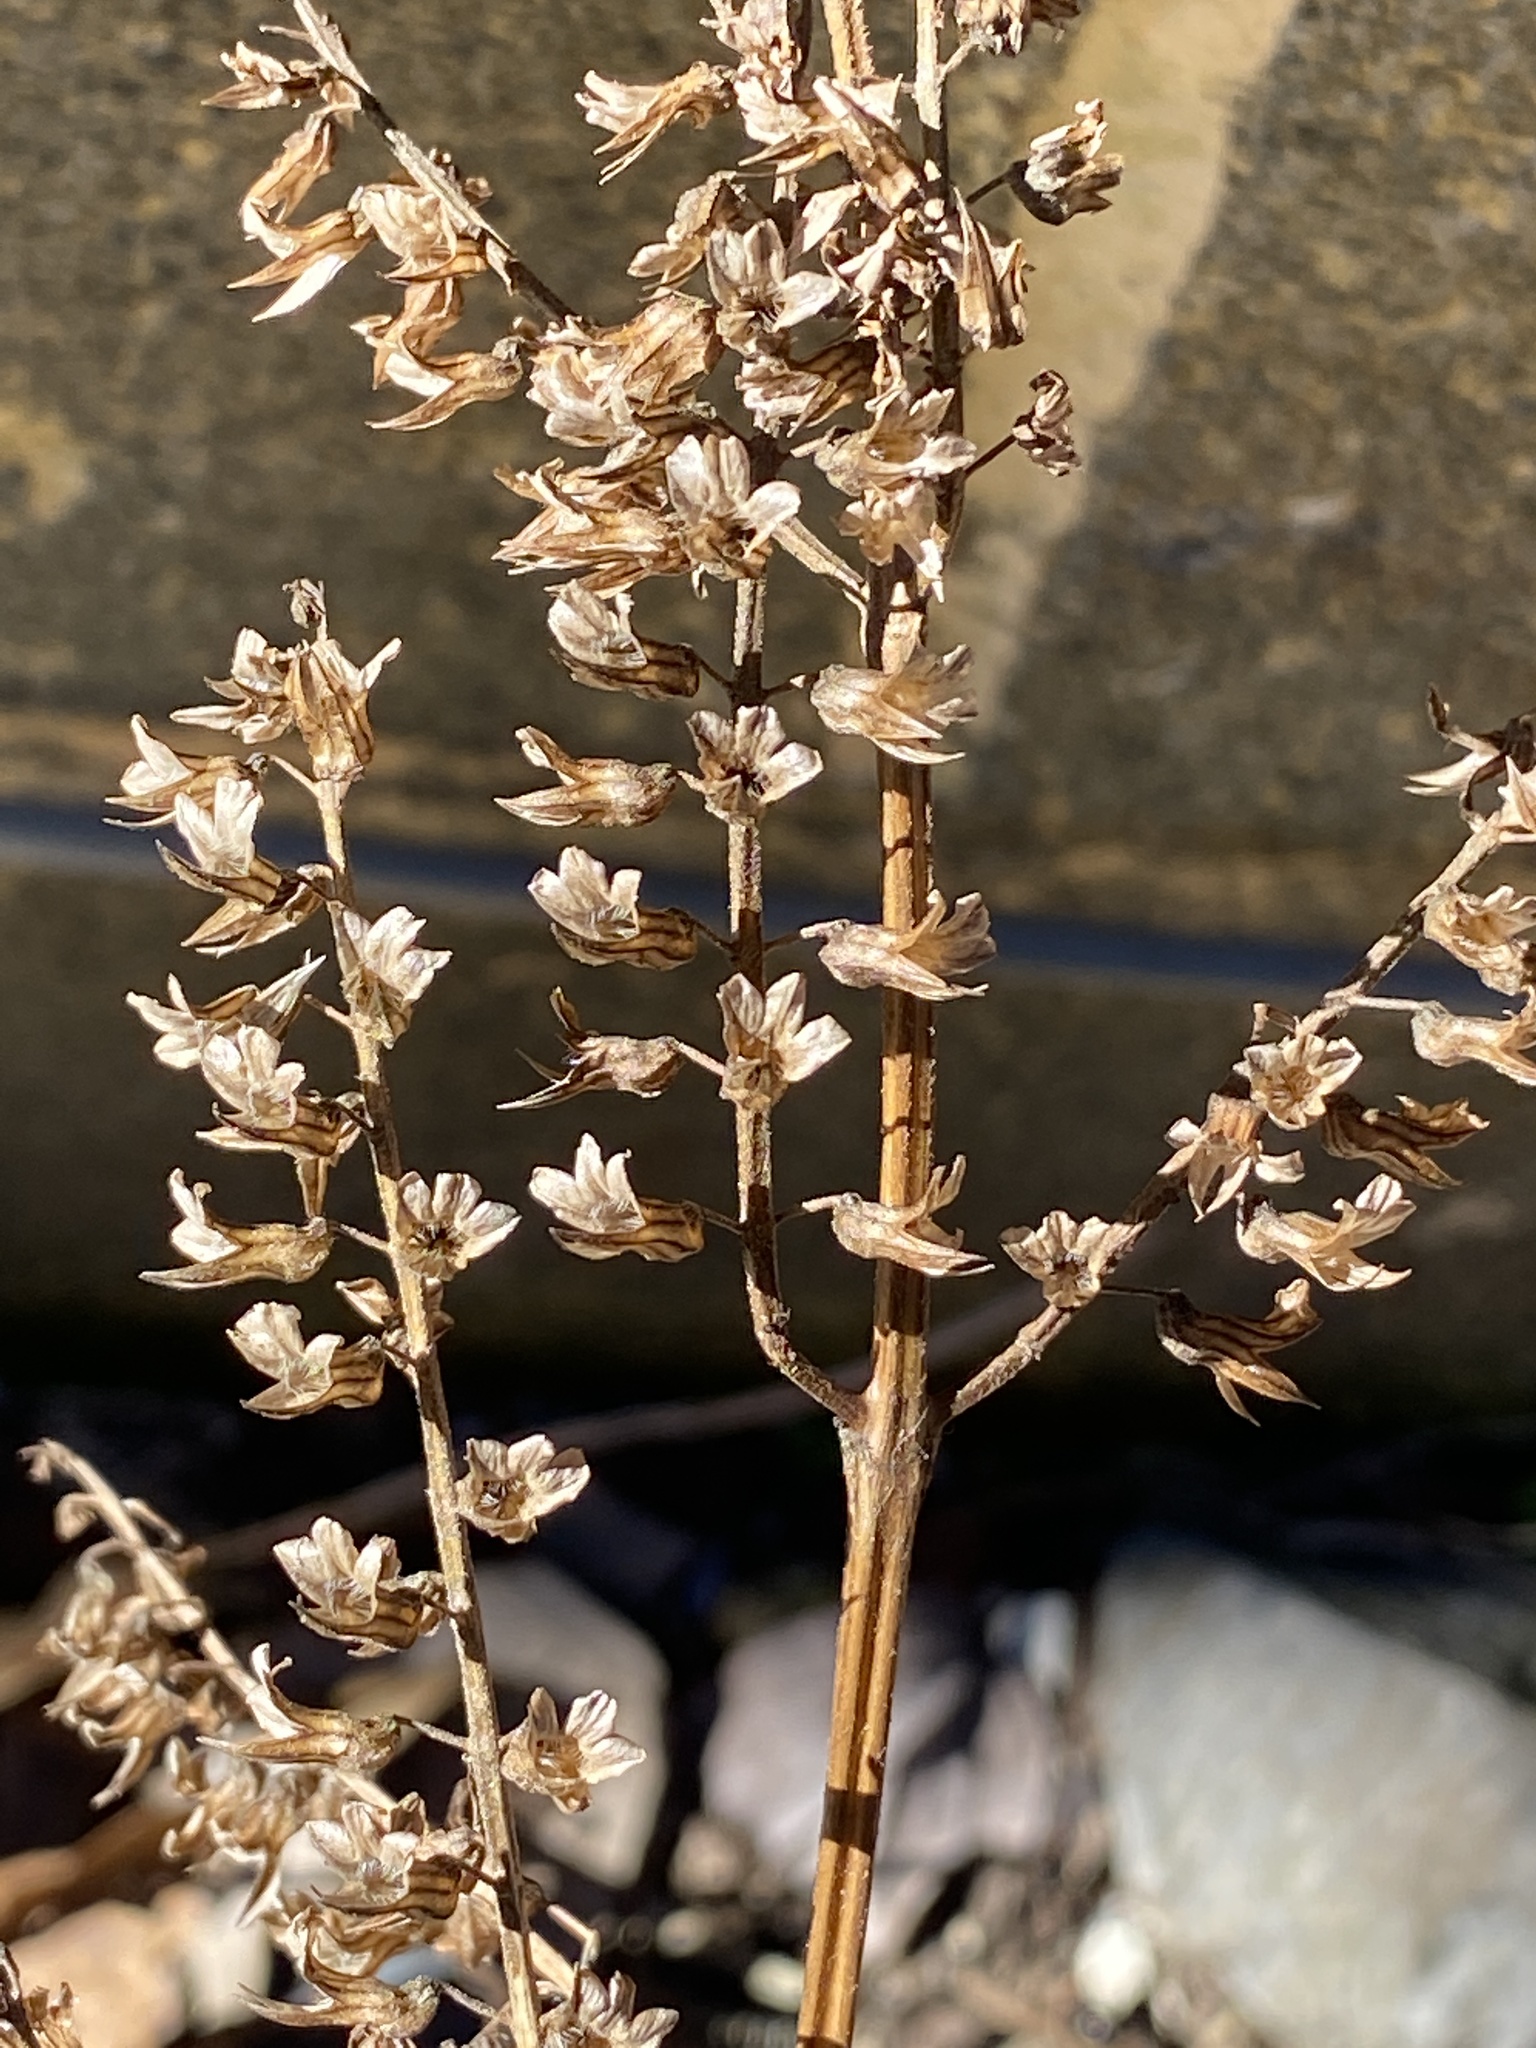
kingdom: Plantae
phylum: Tracheophyta
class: Magnoliopsida
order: Lamiales
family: Lamiaceae
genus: Perilla
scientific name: Perilla frutescens
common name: Perilla
